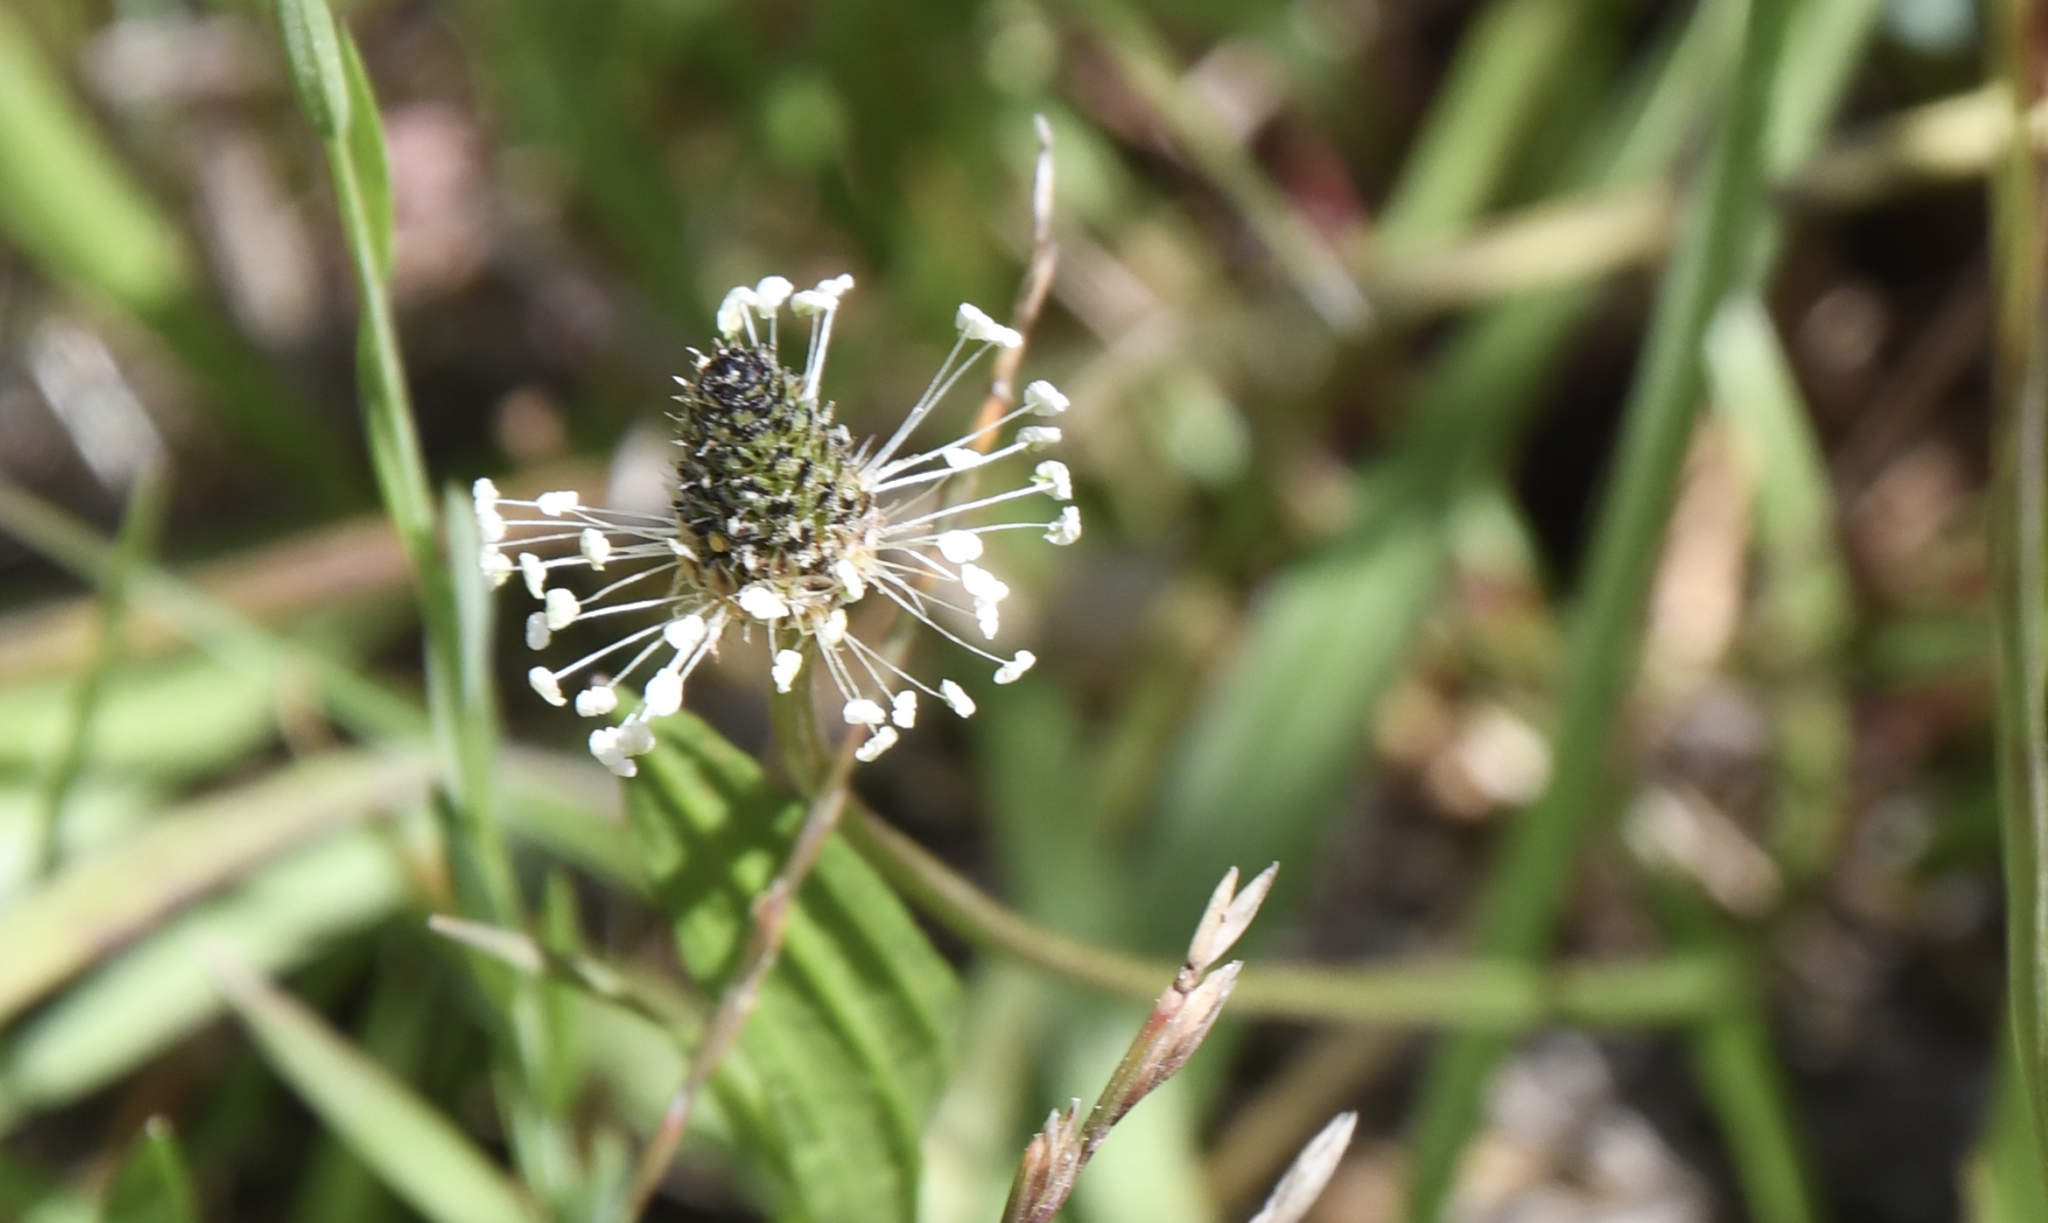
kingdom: Plantae
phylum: Tracheophyta
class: Magnoliopsida
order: Lamiales
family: Plantaginaceae
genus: Plantago
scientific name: Plantago lanceolata
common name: Ribwort plantain
